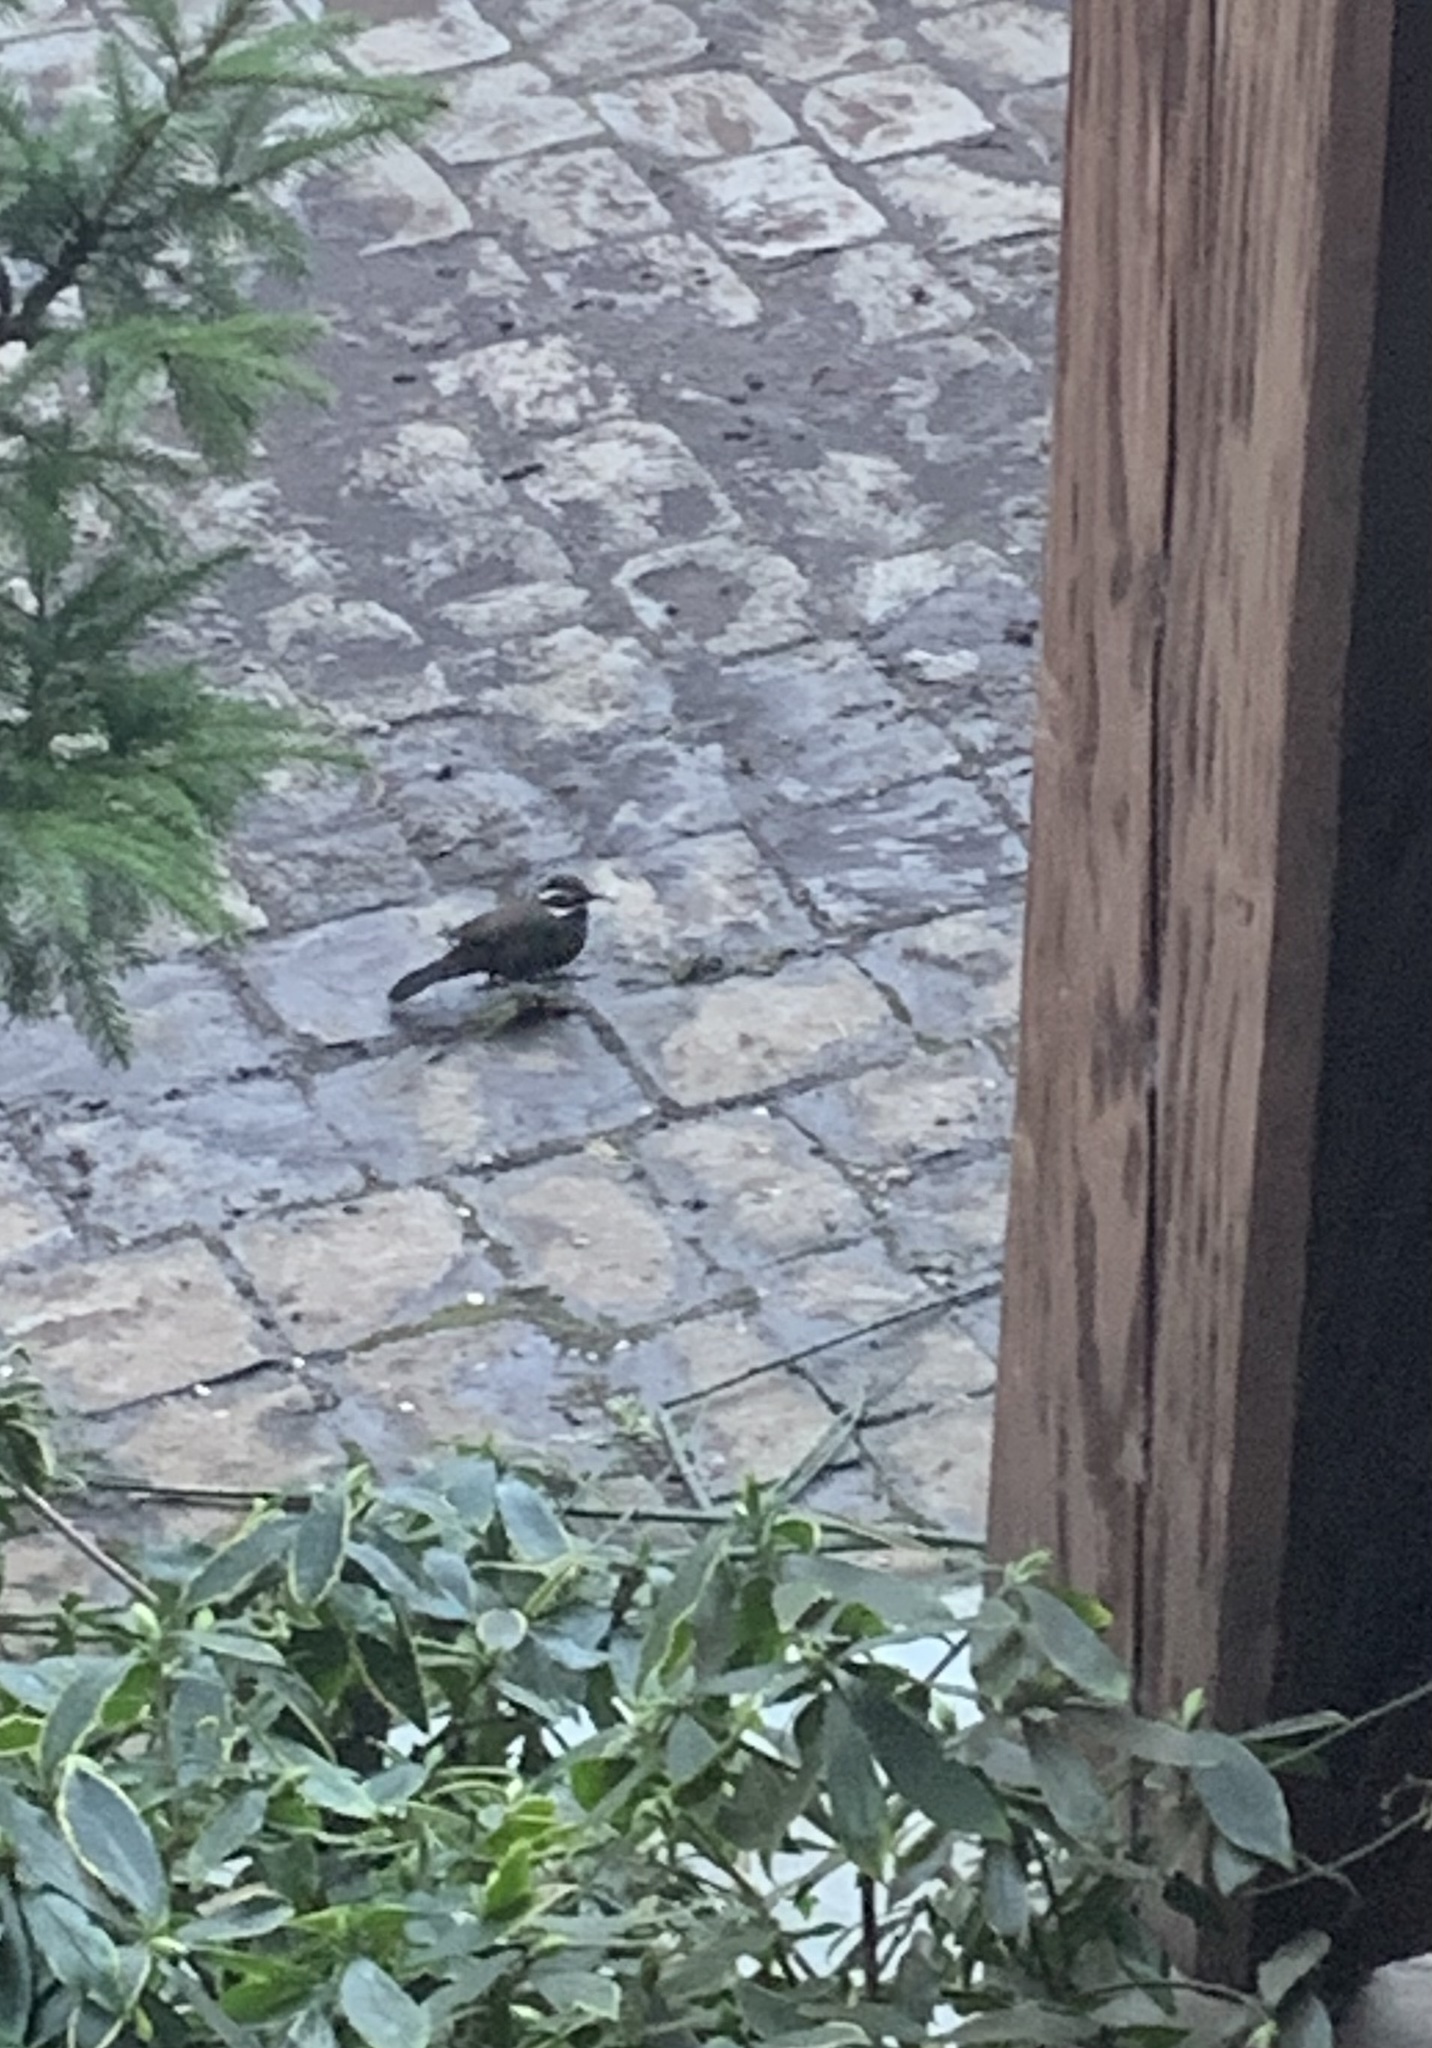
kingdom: Animalia
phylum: Chordata
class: Aves
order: Passeriformes
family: Furnariidae
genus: Cinclodes
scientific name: Cinclodes patagonicus
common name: Dark-bellied cinclodes
